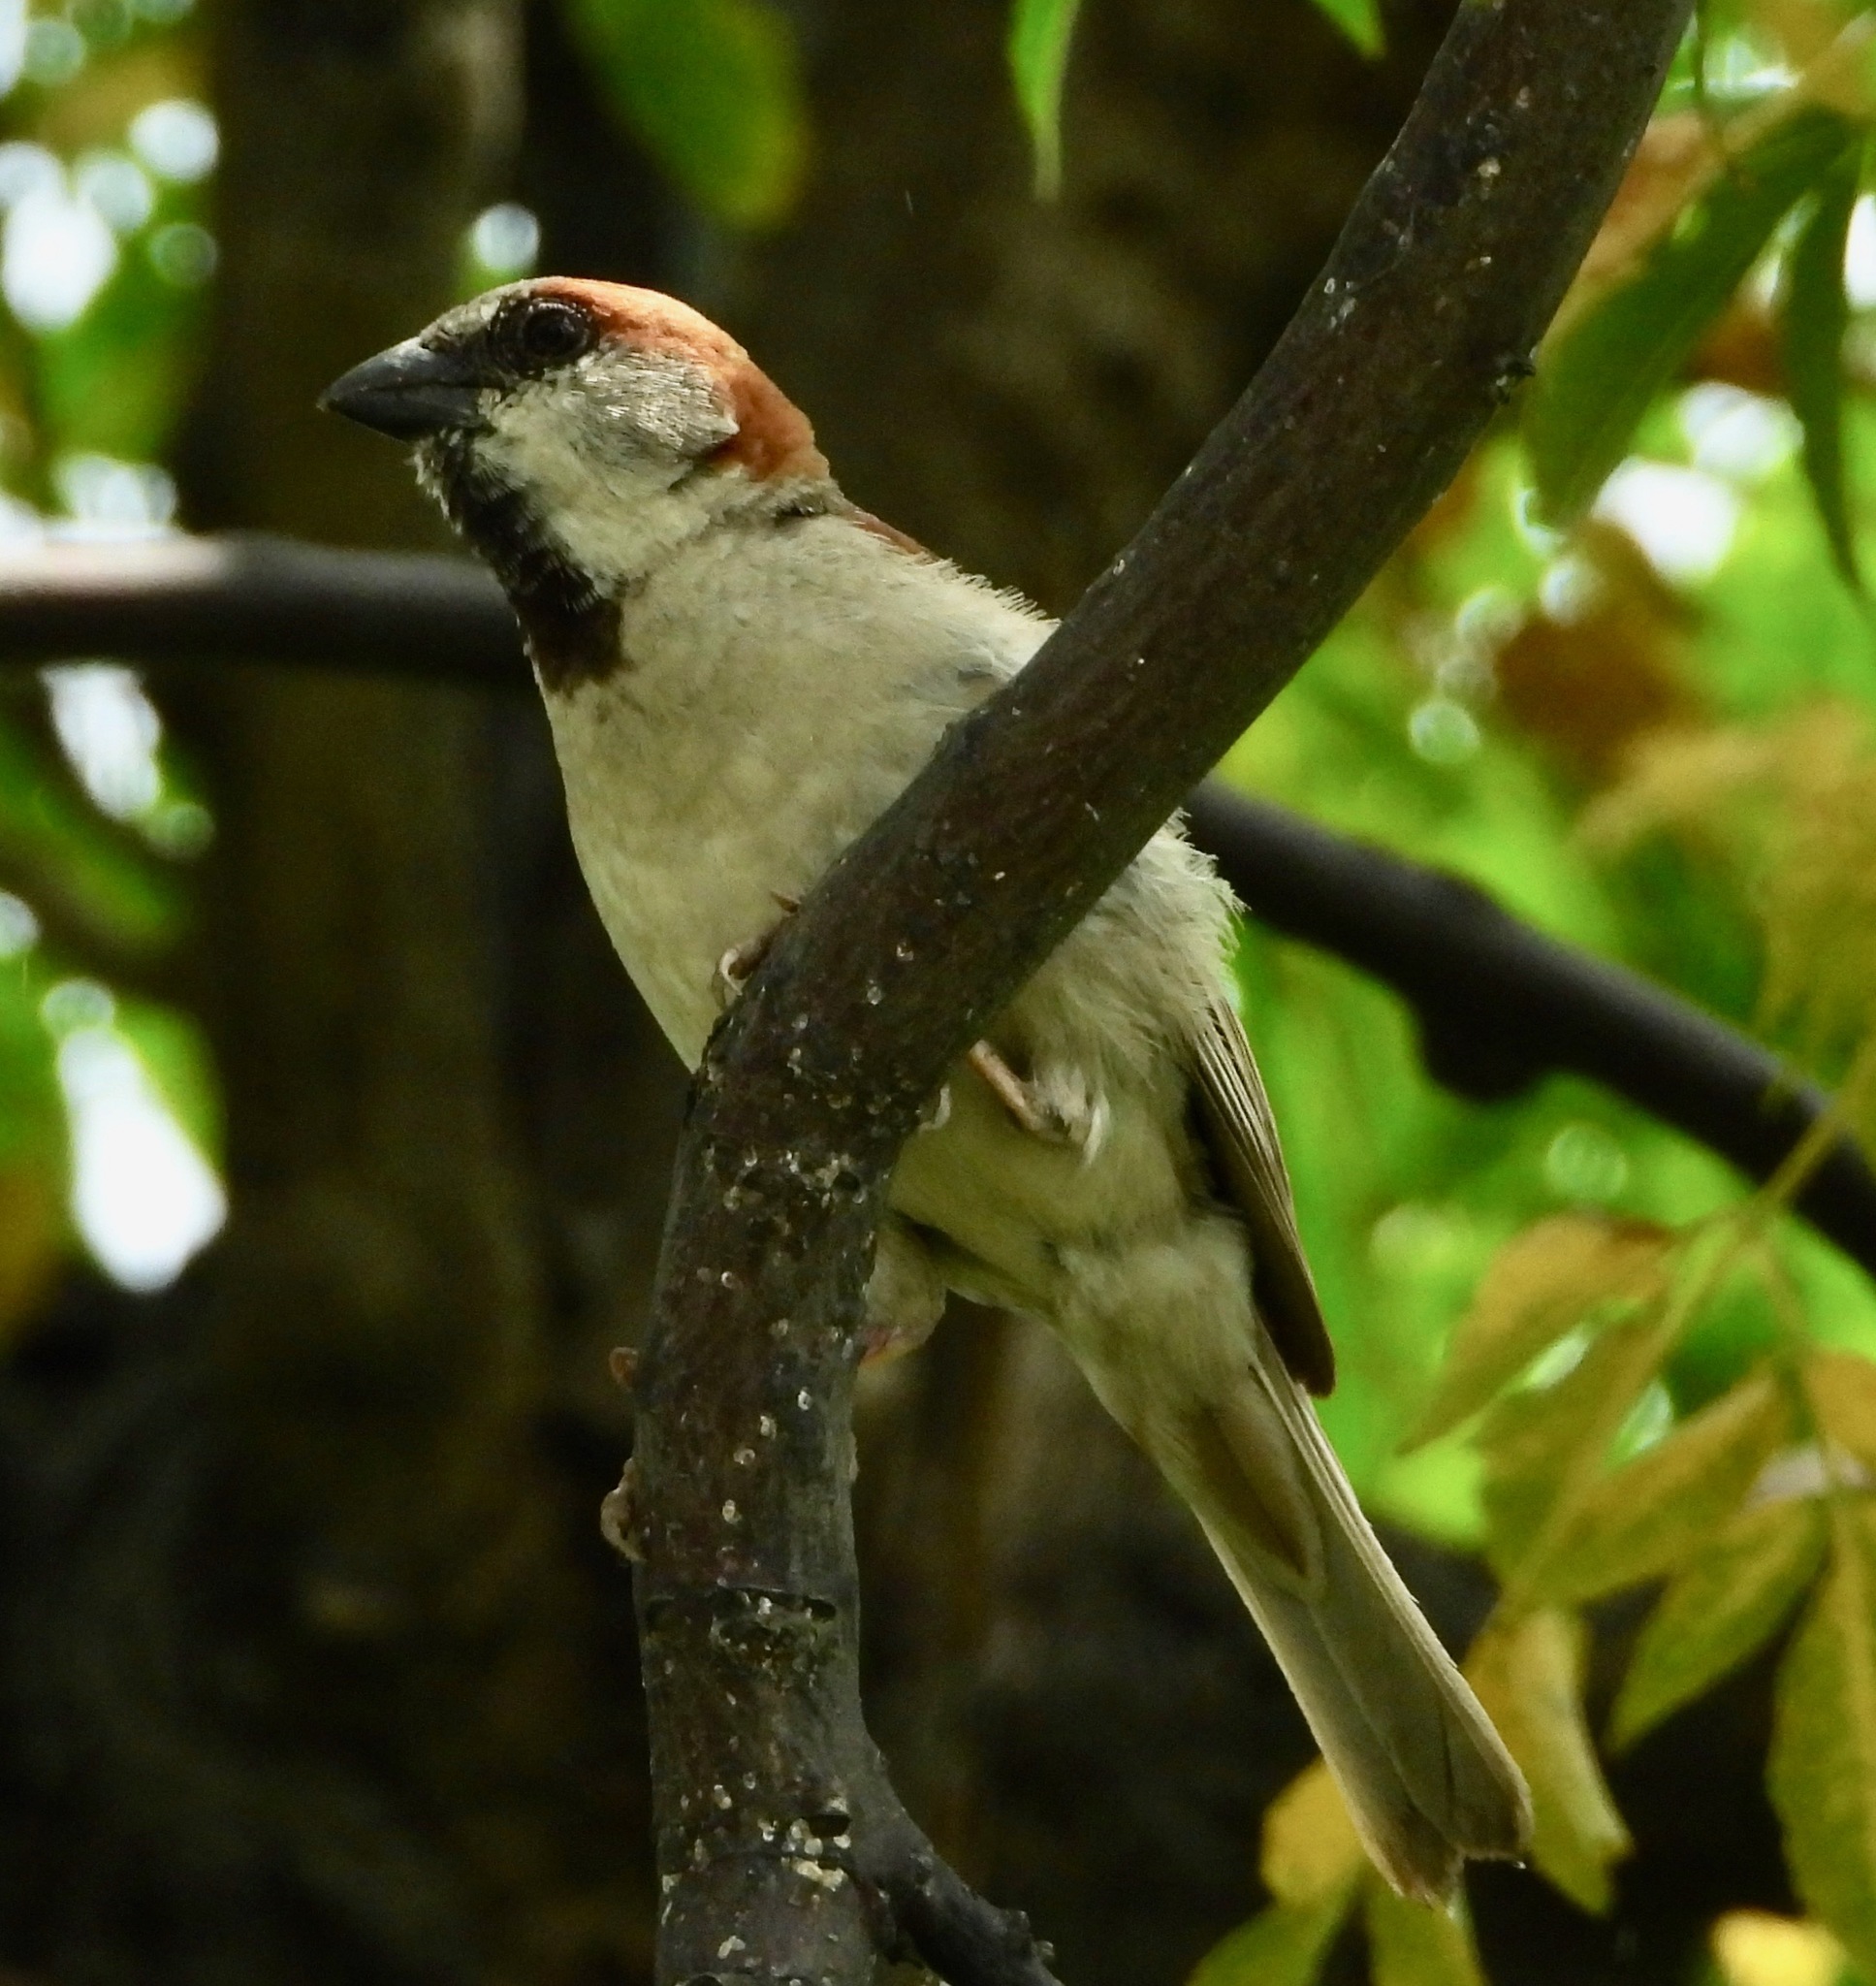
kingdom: Animalia
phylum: Chordata
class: Aves
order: Passeriformes
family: Passeridae
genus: Passer
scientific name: Passer pyrrhonotus
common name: Sind sparrow
